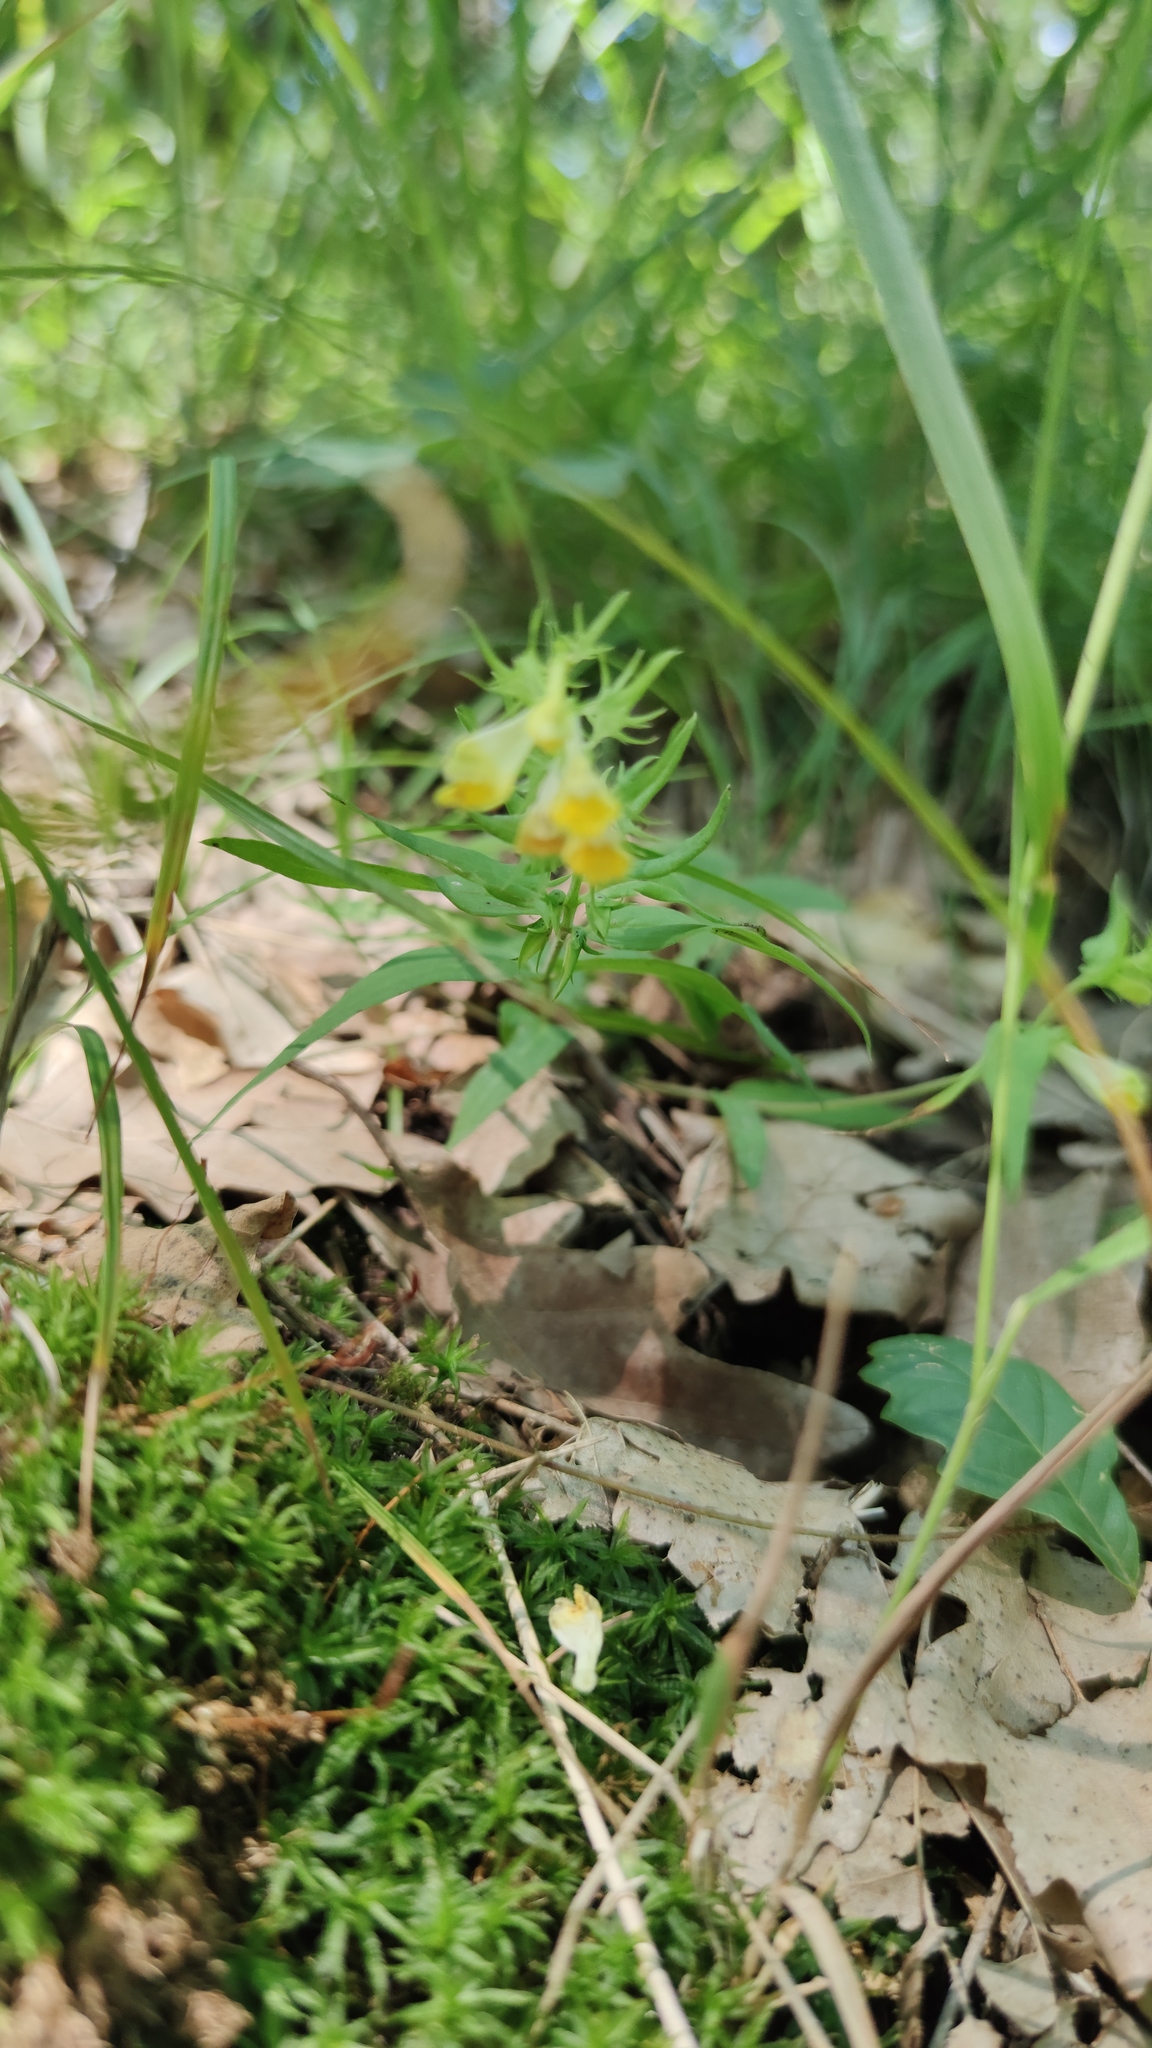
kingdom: Plantae
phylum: Tracheophyta
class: Magnoliopsida
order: Lamiales
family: Orobanchaceae
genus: Melampyrum
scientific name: Melampyrum pratense
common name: Common cow-wheat
